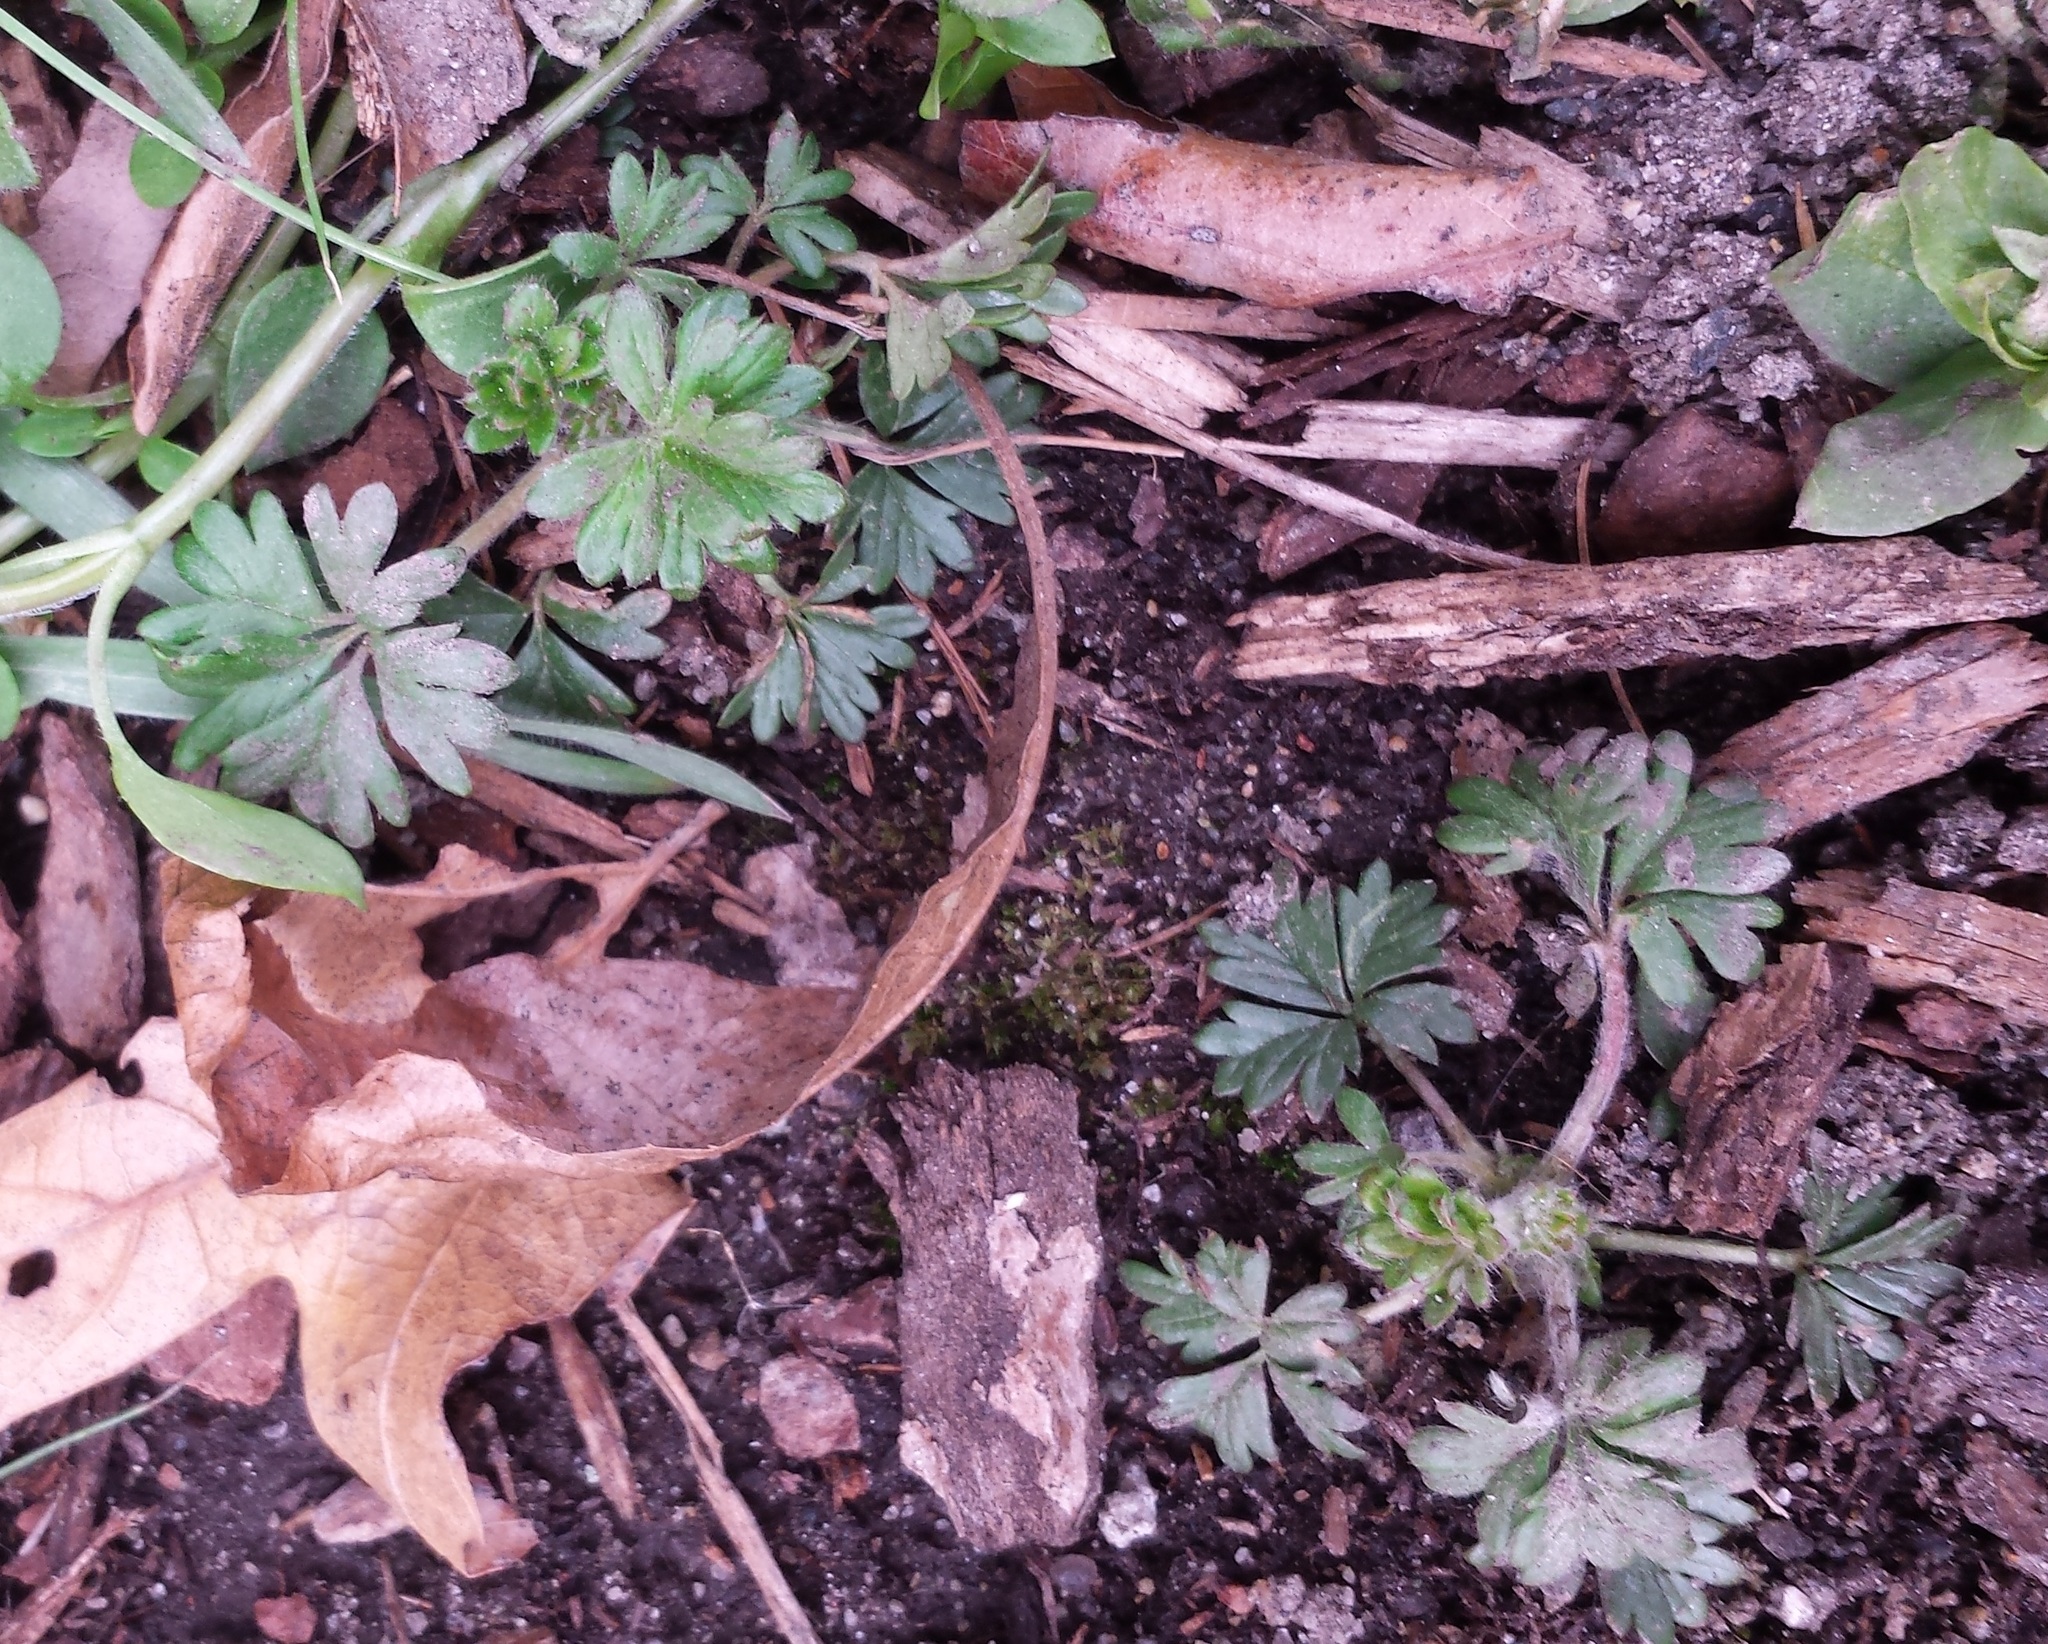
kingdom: Plantae
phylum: Tracheophyta
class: Magnoliopsida
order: Rosales
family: Rosaceae
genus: Potentilla
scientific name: Potentilla argentea
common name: Hoary cinquefoil
